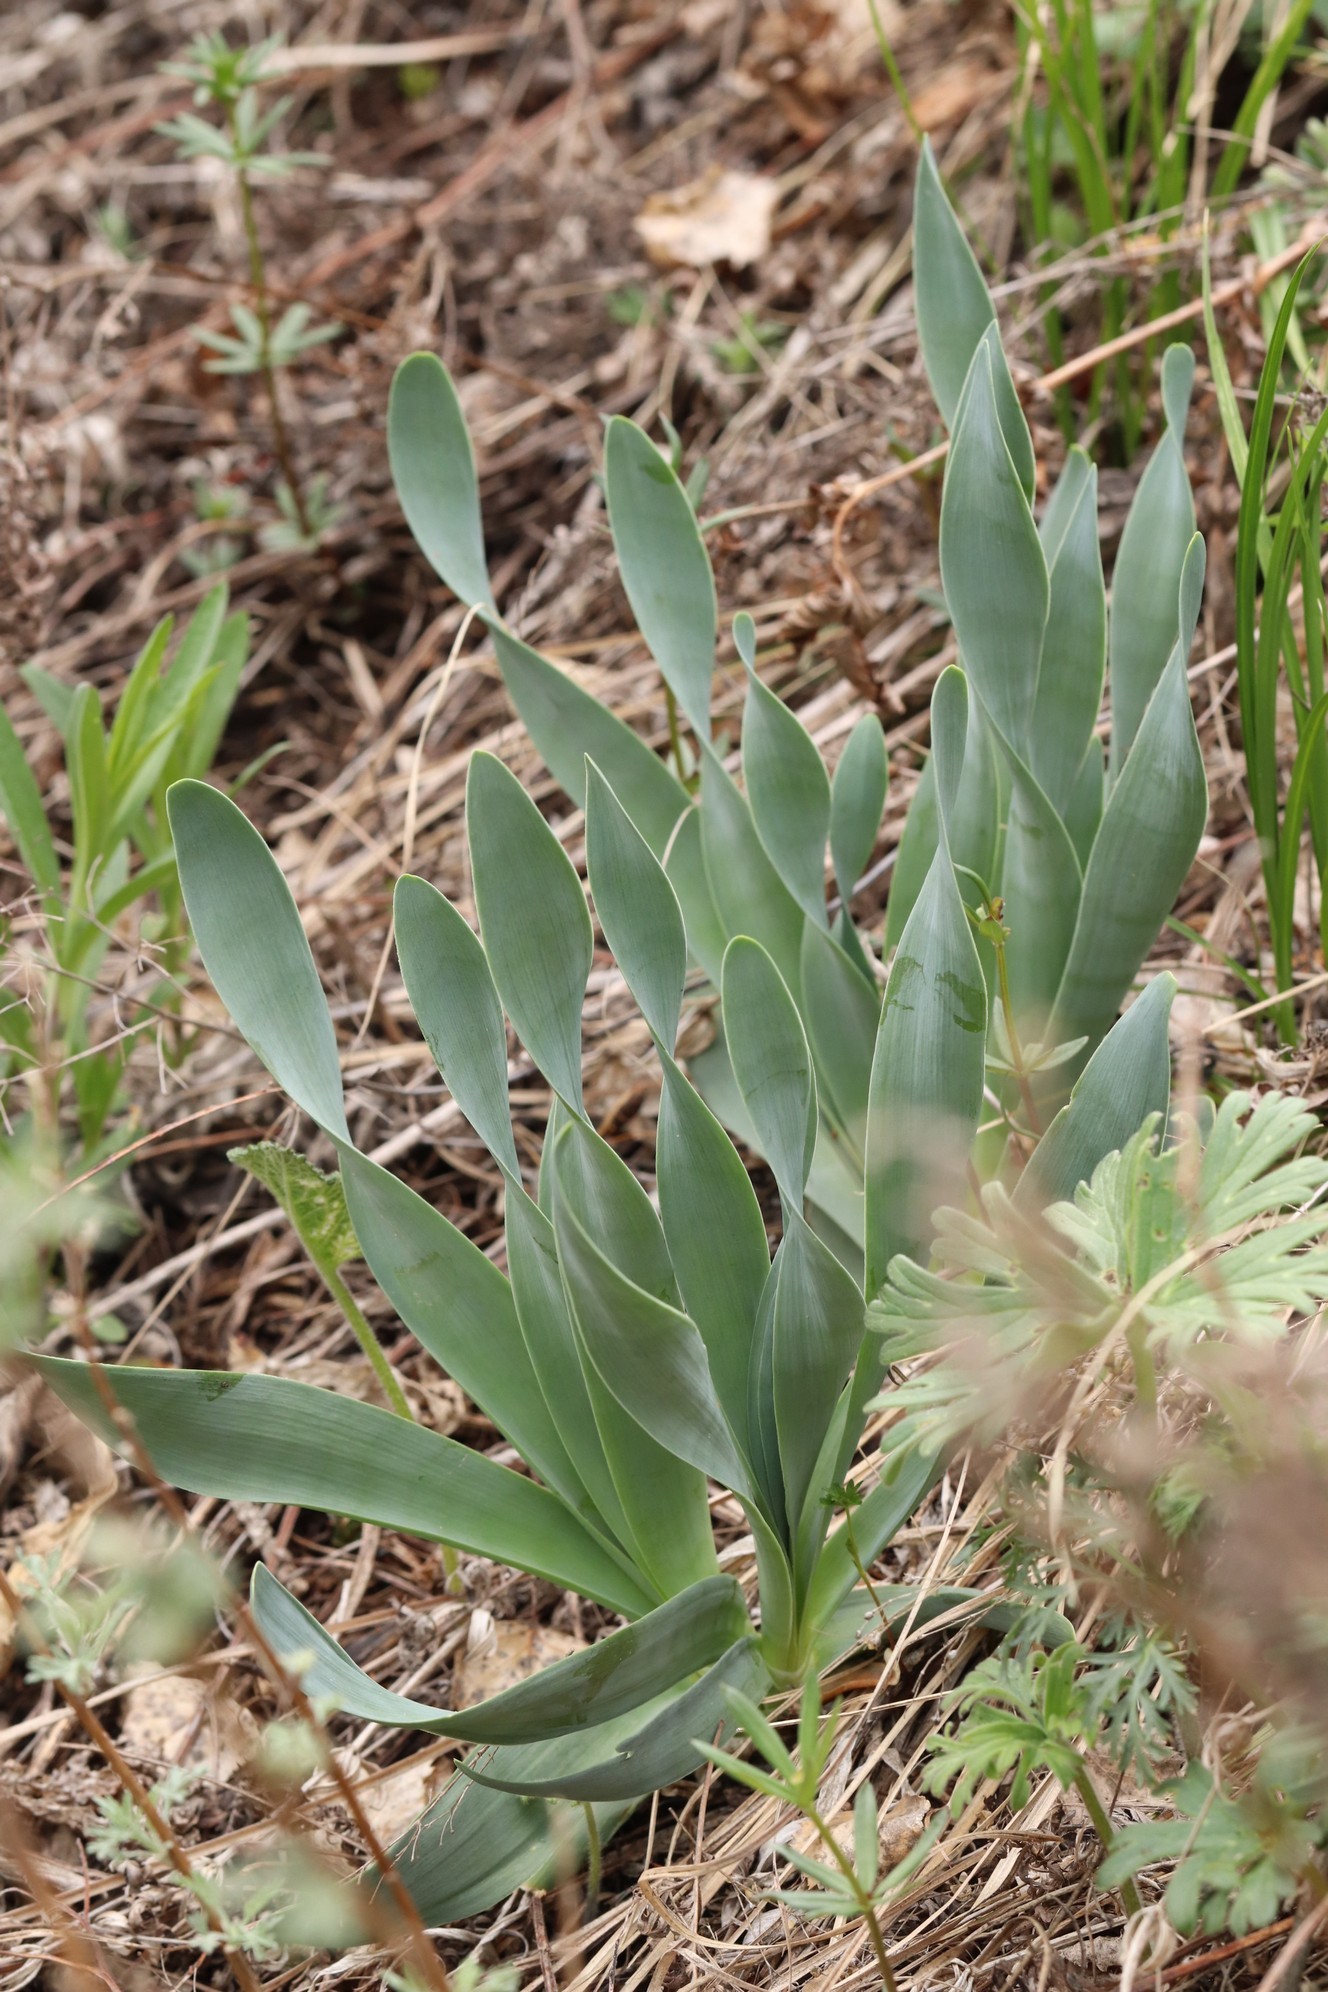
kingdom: Plantae
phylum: Tracheophyta
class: Liliopsida
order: Asparagales
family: Amaryllidaceae
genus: Allium
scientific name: Allium nutans
